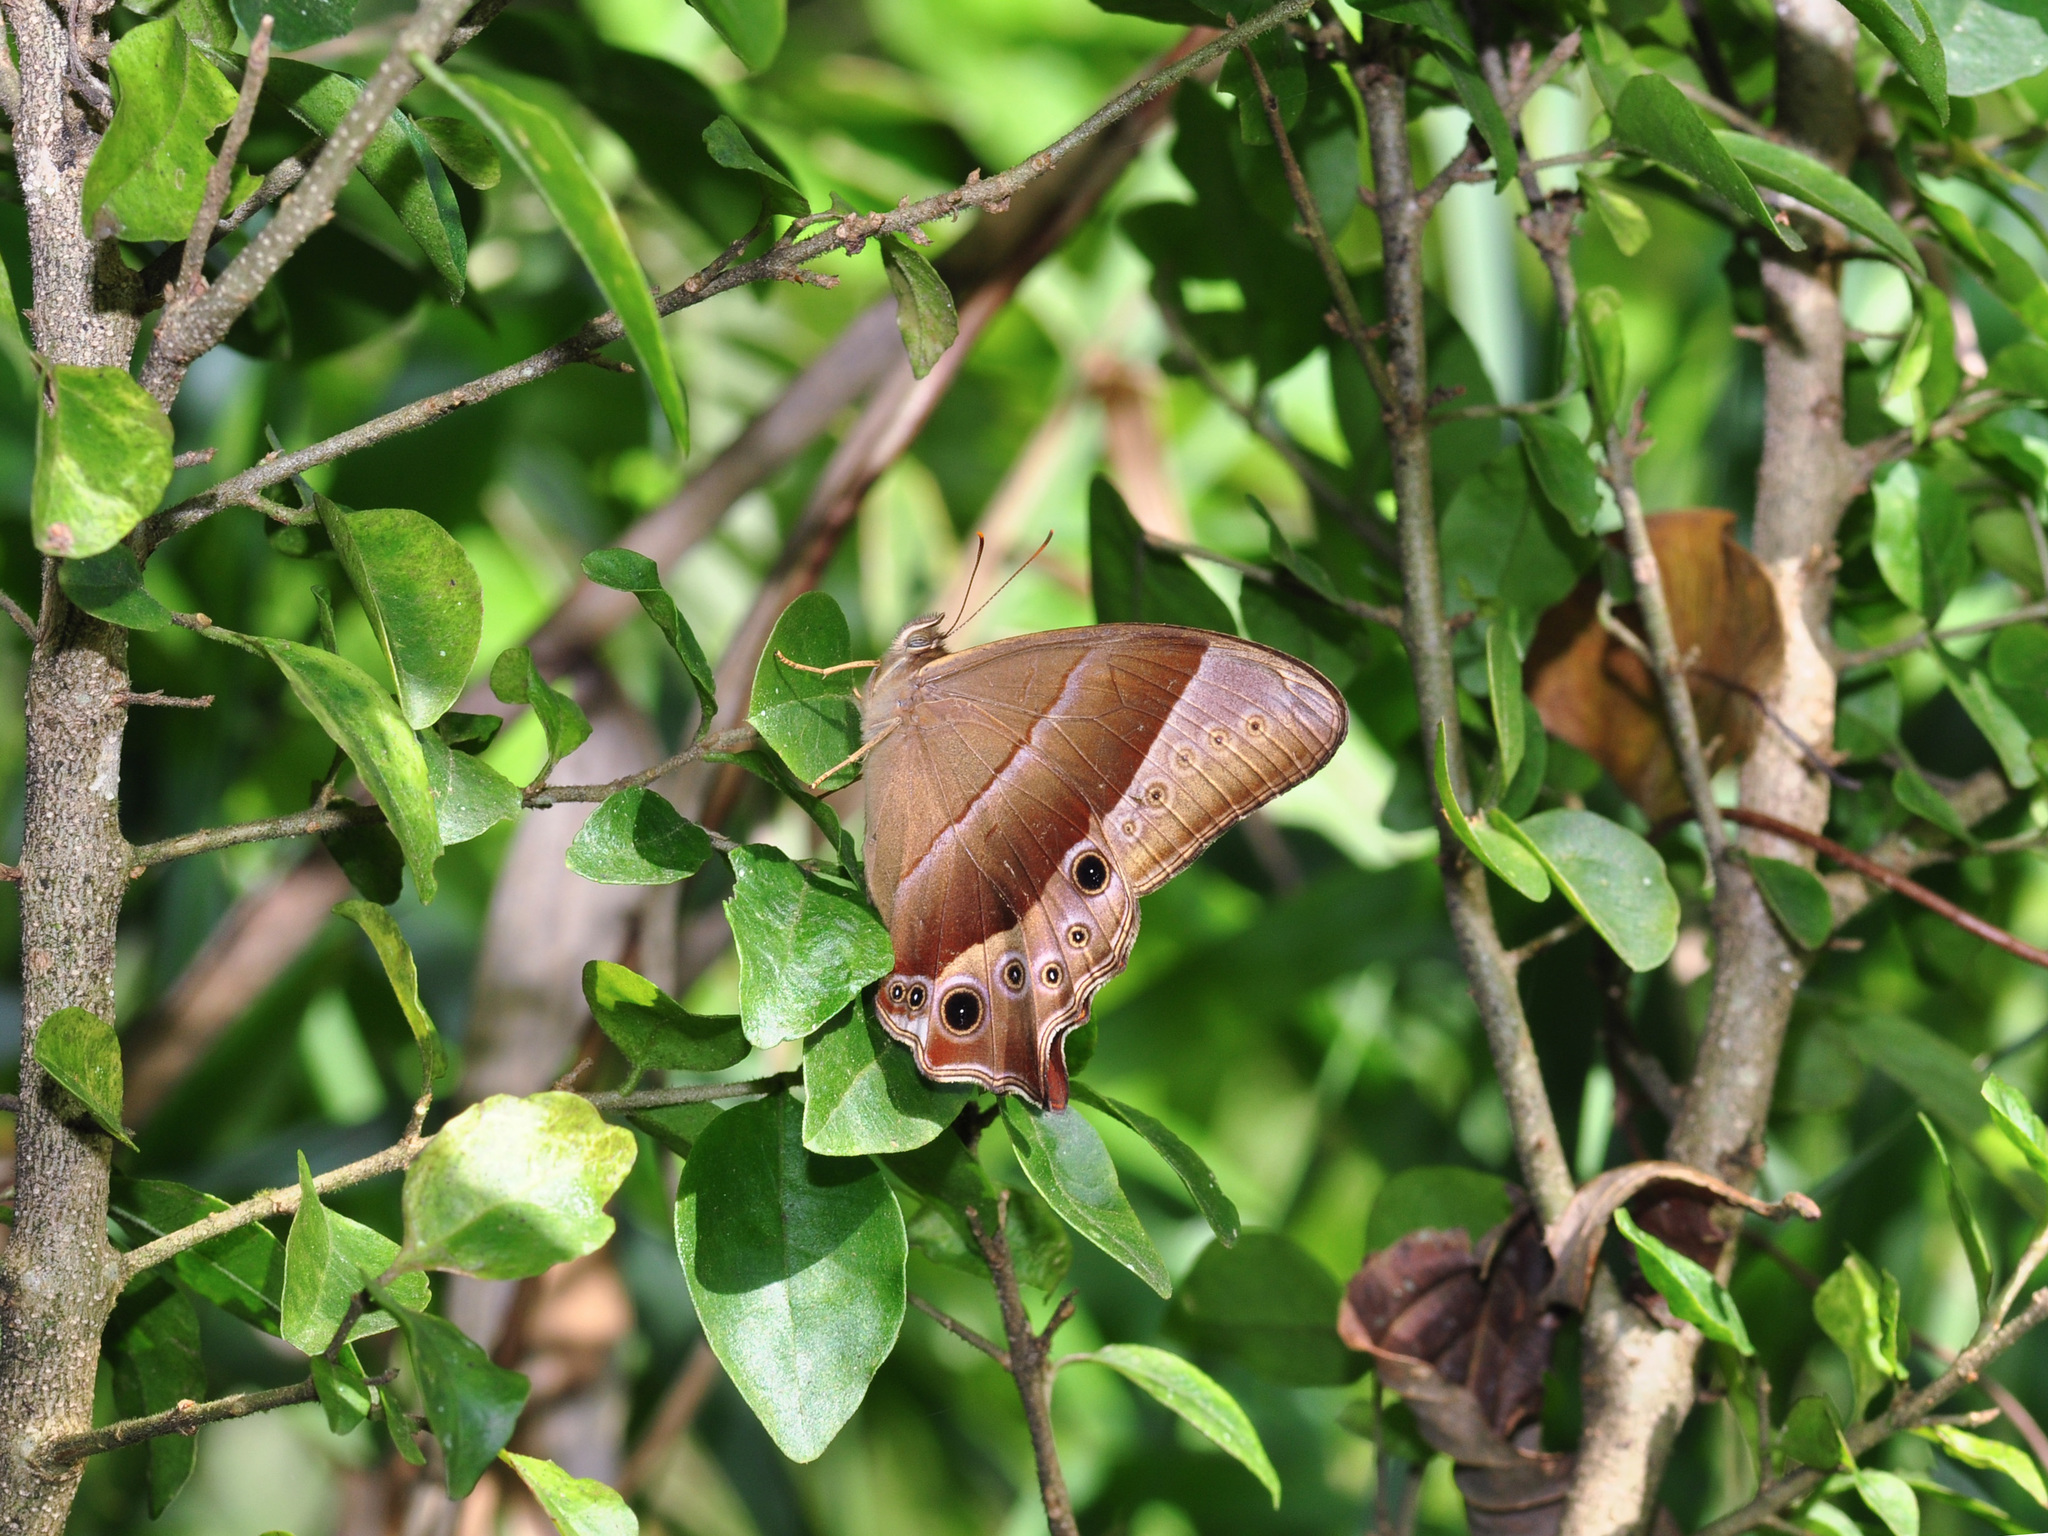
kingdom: Animalia
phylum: Arthropoda
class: Insecta
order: Lepidoptera
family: Nymphalidae
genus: Lethe
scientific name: Lethe vindhya
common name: Black forester
